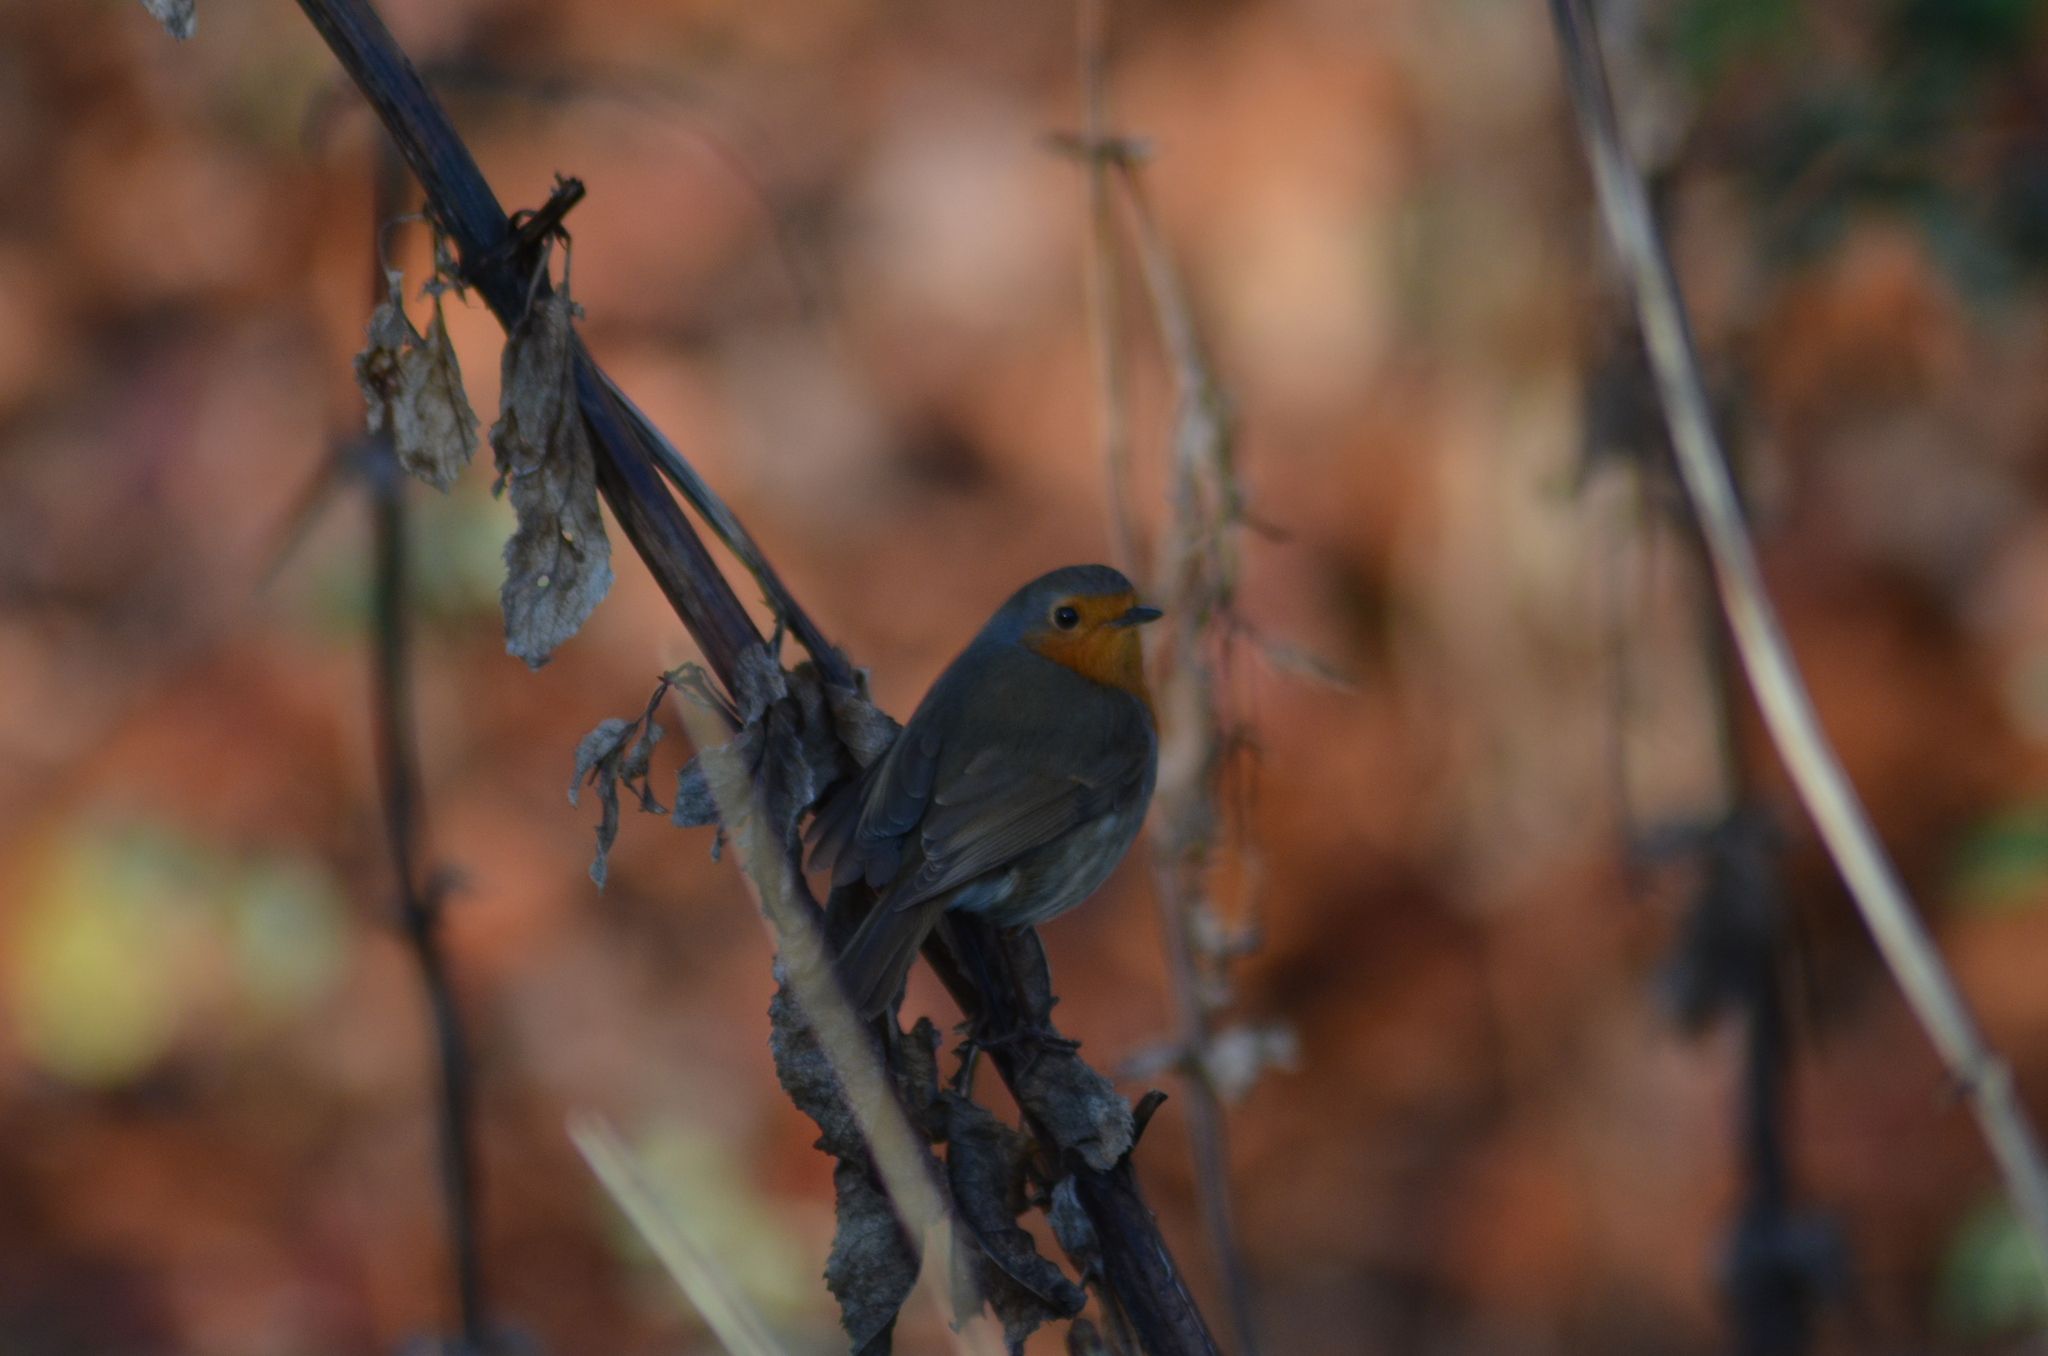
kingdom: Animalia
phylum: Chordata
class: Aves
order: Passeriformes
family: Muscicapidae
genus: Erithacus
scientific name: Erithacus rubecula
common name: European robin
